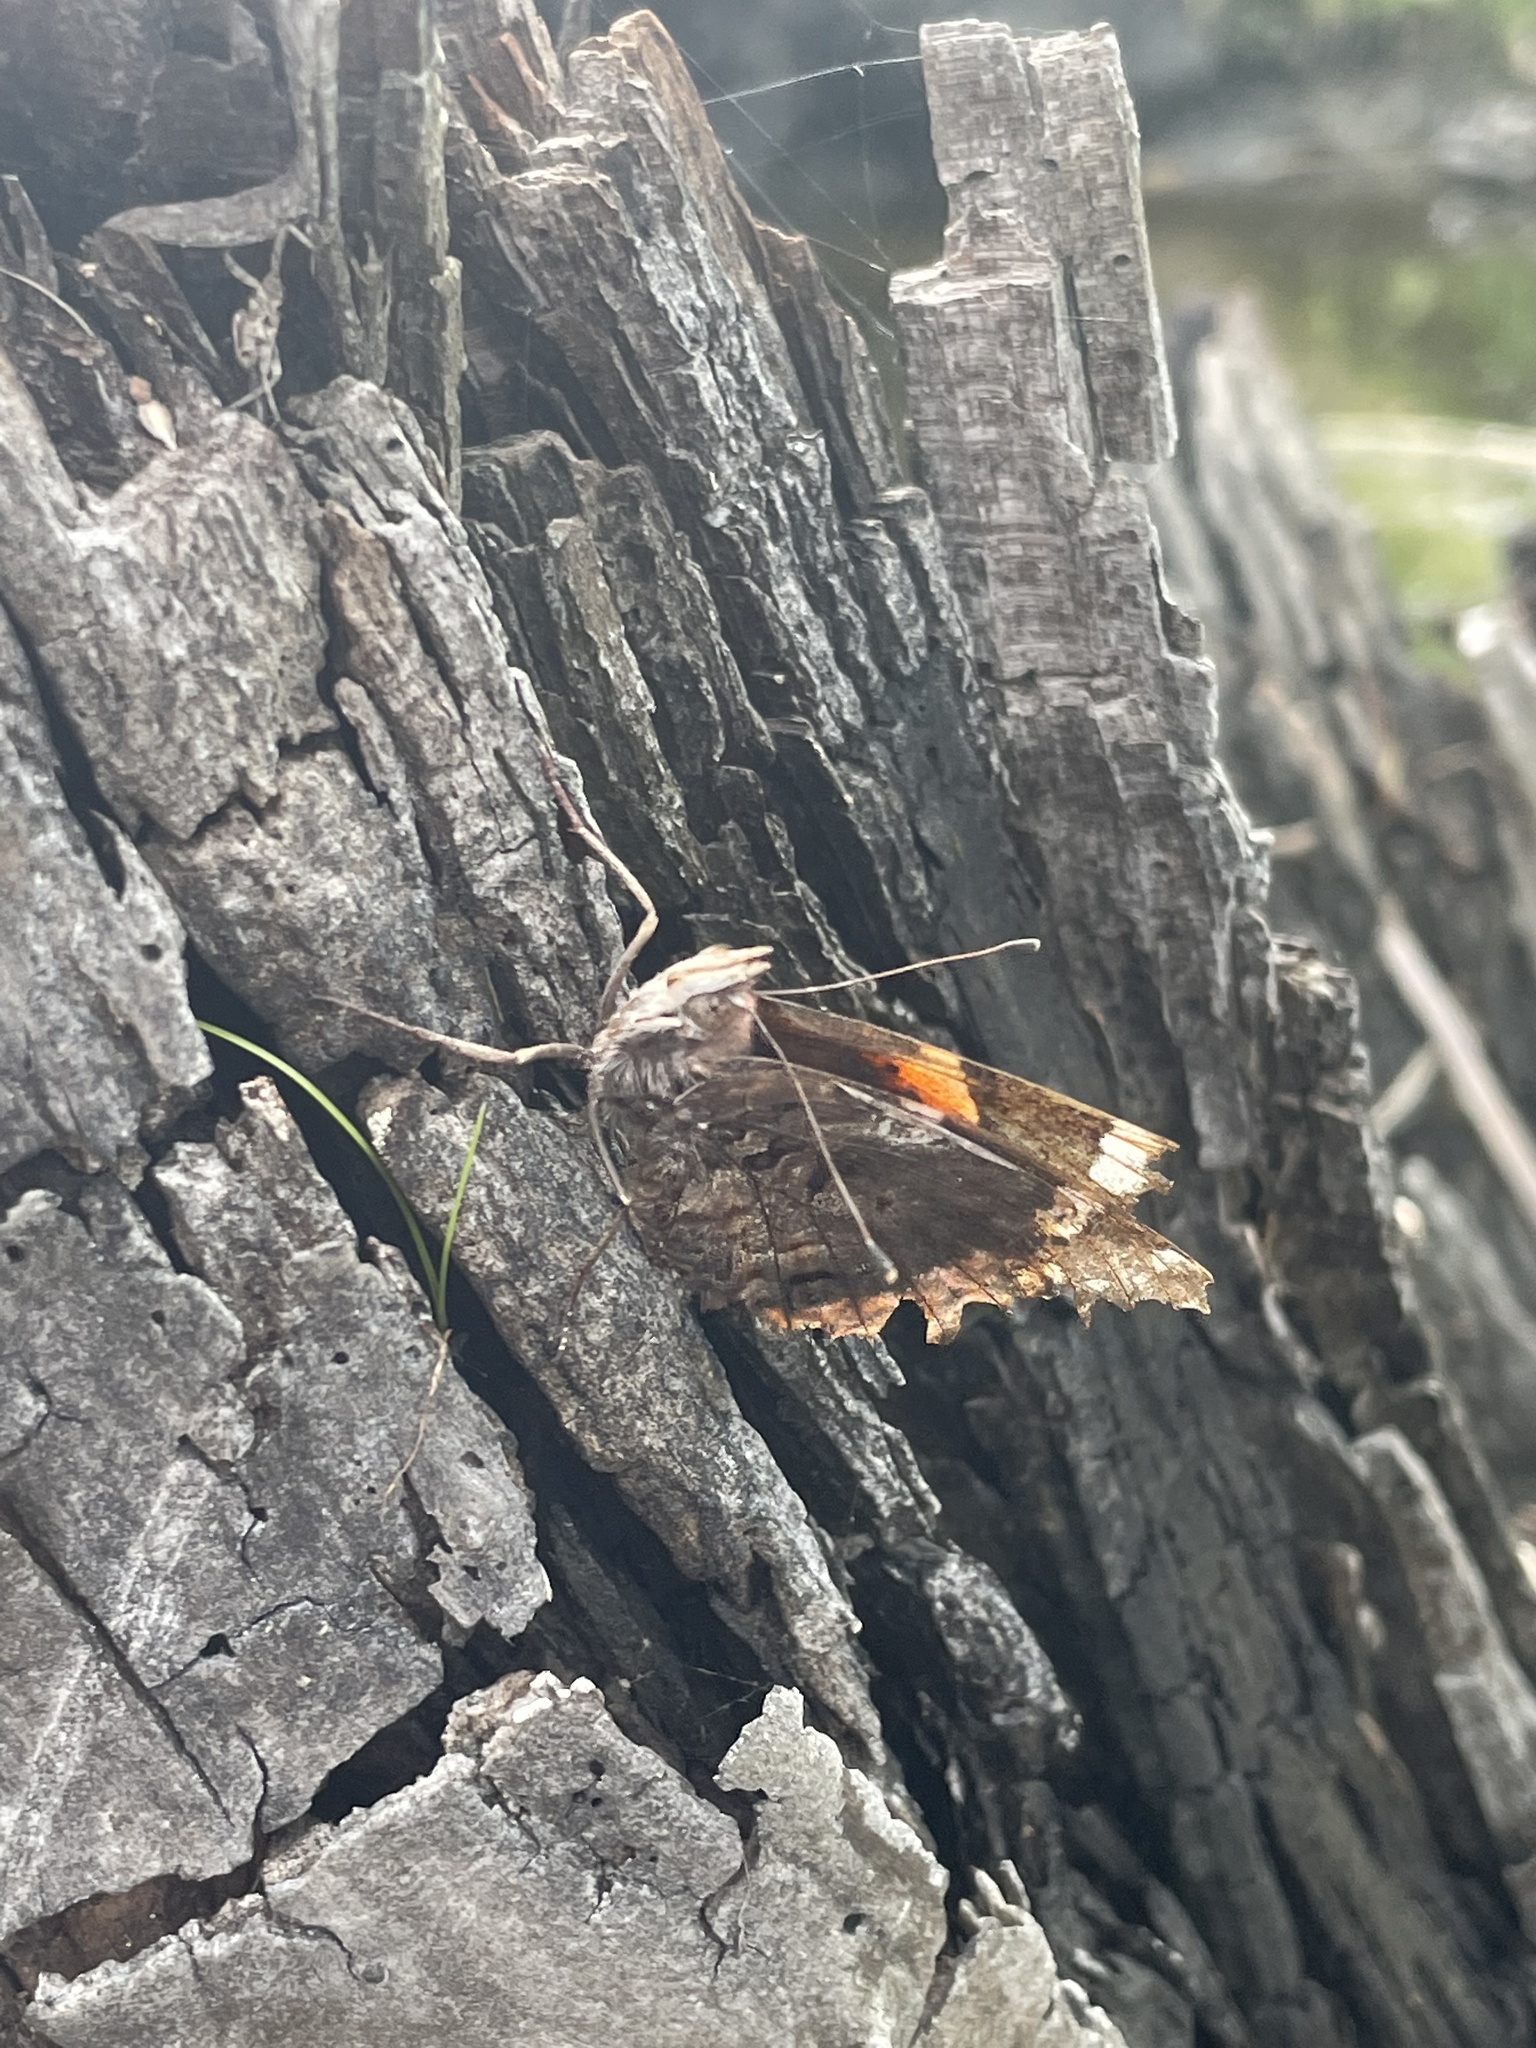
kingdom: Animalia
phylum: Arthropoda
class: Insecta
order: Lepidoptera
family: Nymphalidae
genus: Vanessa
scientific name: Vanessa atalanta
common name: Red admiral
